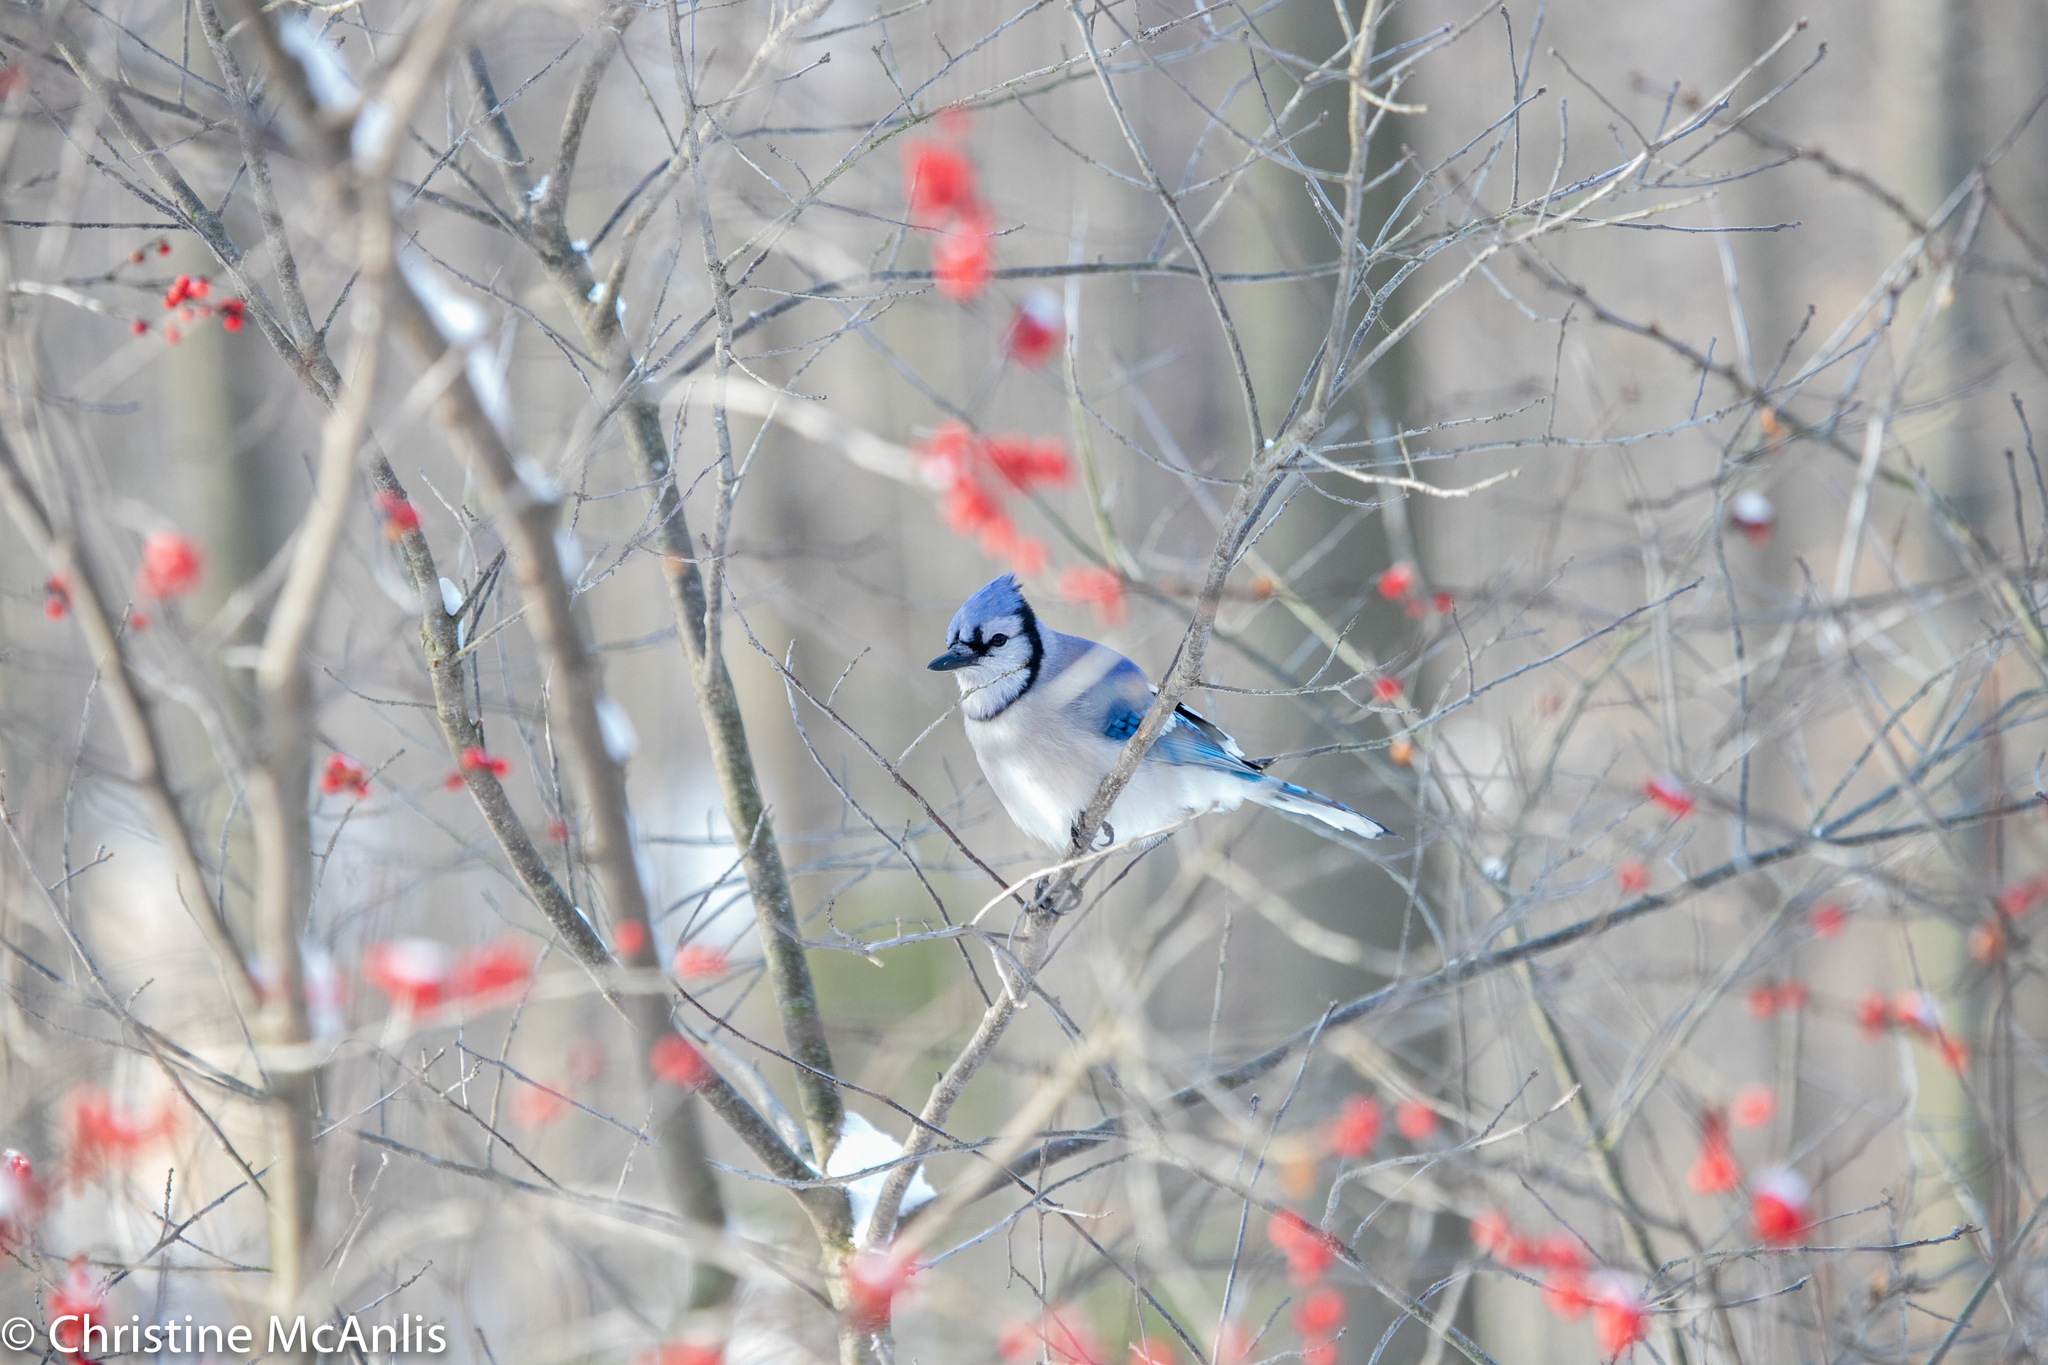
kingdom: Animalia
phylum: Chordata
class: Aves
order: Passeriformes
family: Corvidae
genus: Cyanocitta
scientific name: Cyanocitta cristata
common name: Blue jay
